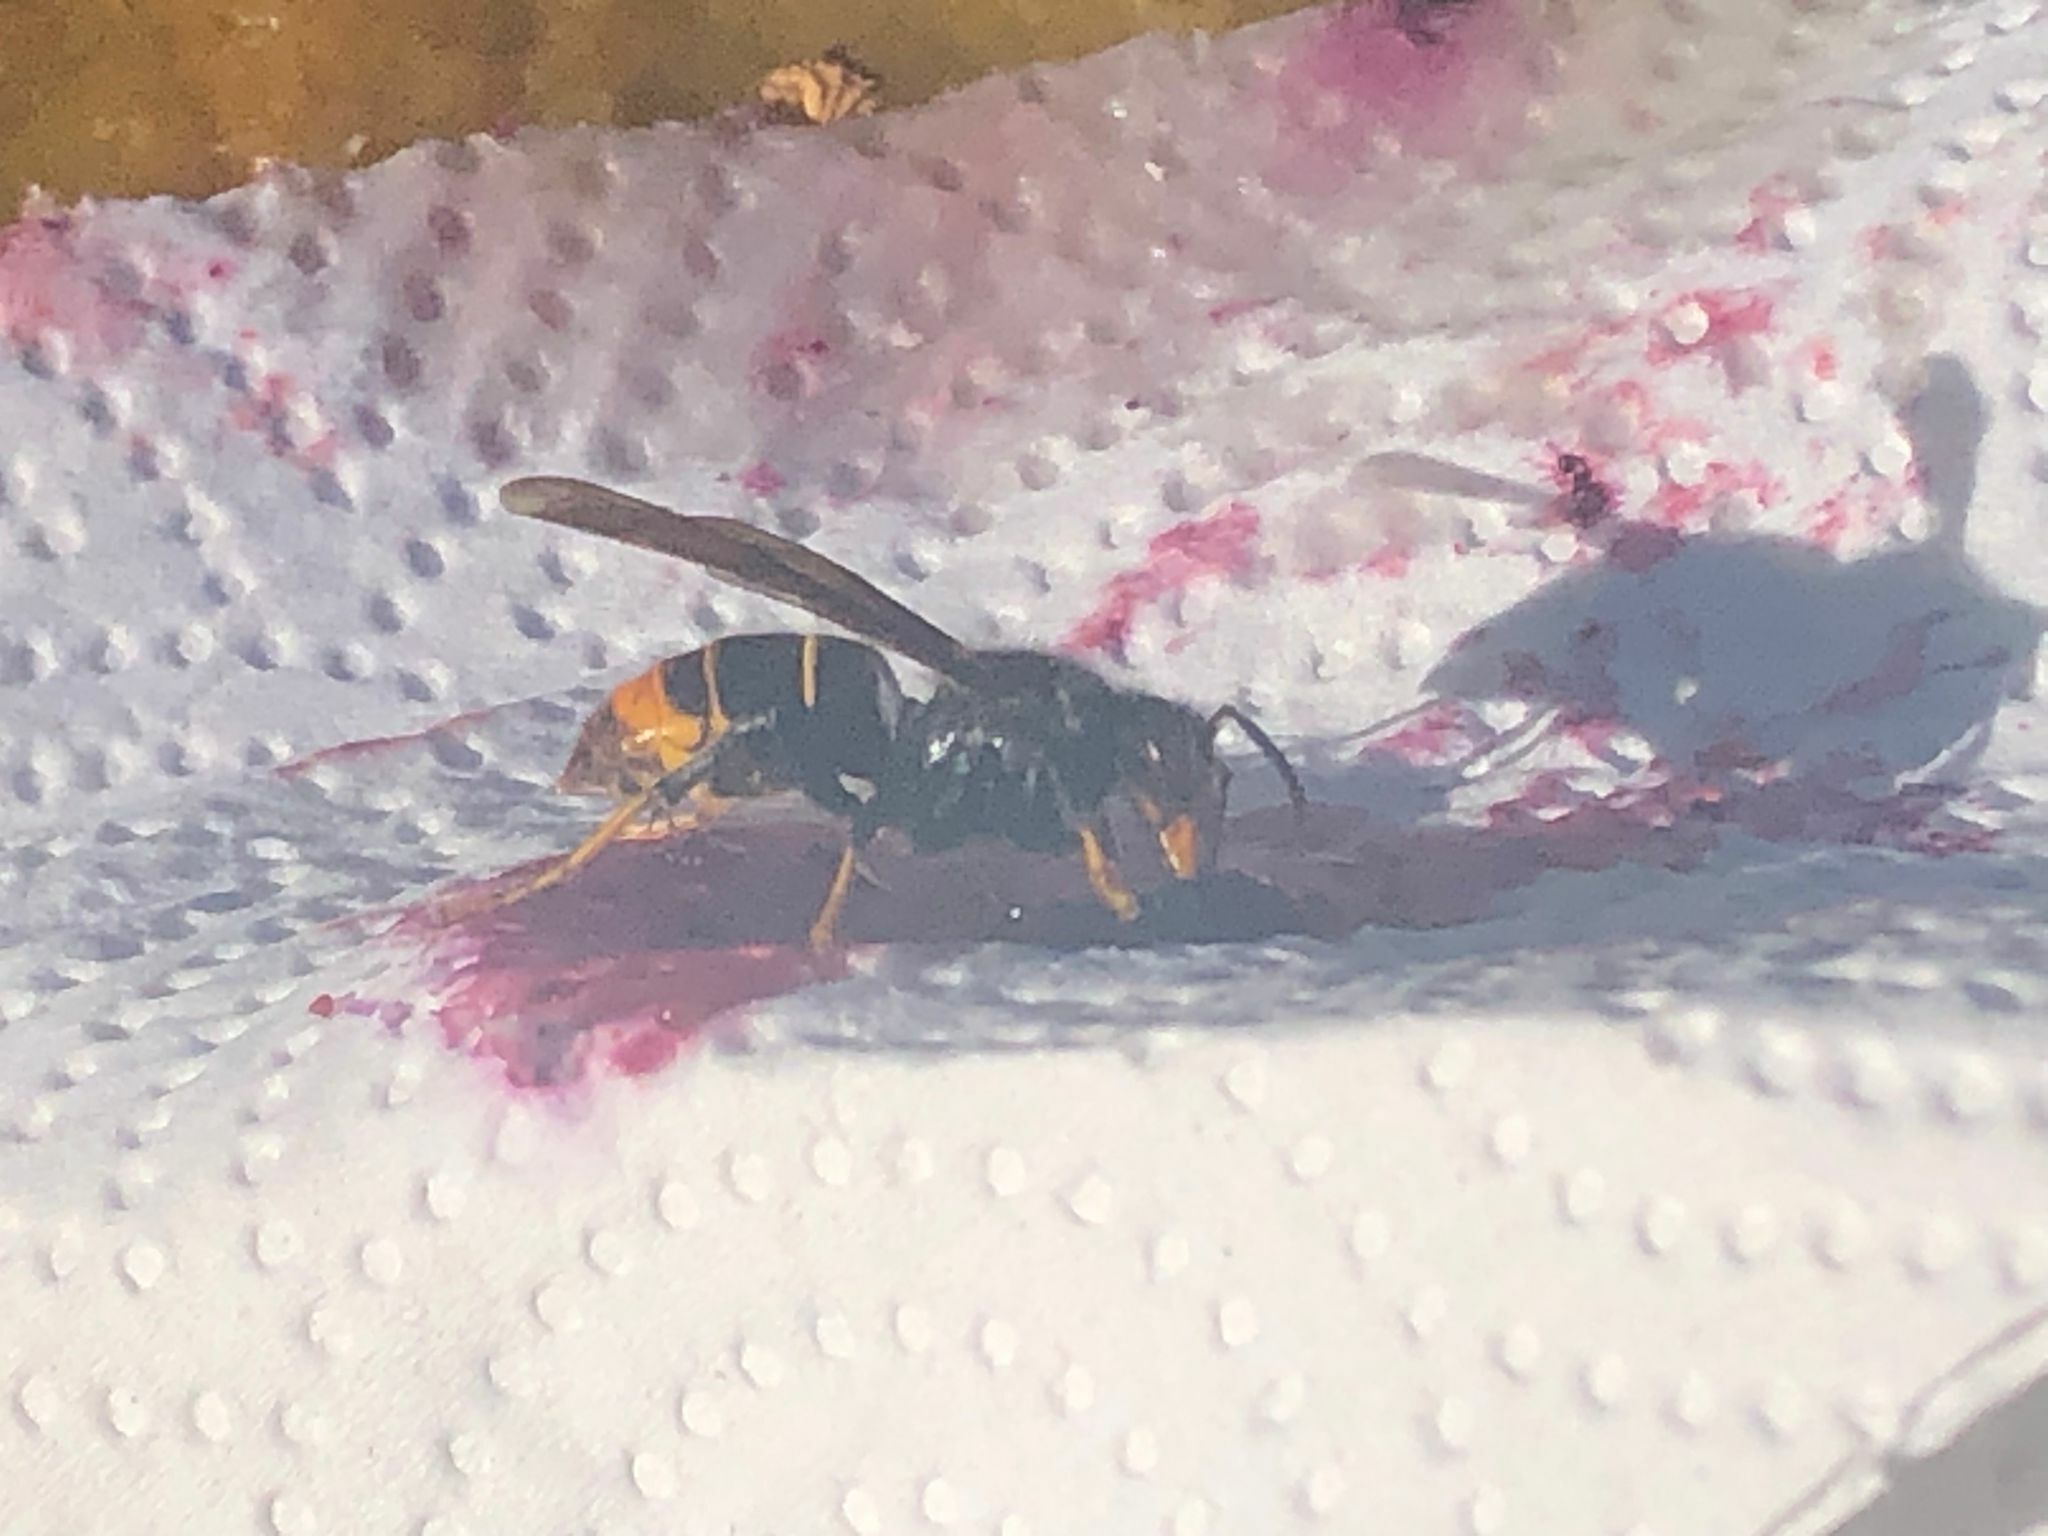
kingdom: Animalia
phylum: Arthropoda
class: Insecta
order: Hymenoptera
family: Vespidae
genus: Vespa
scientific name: Vespa velutina
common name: Asian hornet
